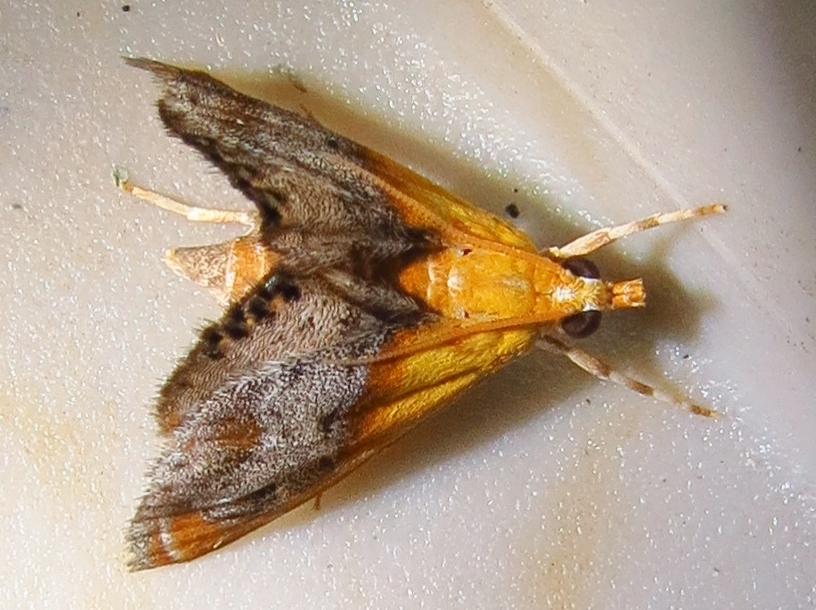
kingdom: Animalia
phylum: Arthropoda
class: Insecta
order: Lepidoptera
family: Crambidae
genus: Chalcoela
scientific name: Chalcoela iphitalis
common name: Sooty-winged chalcoela moth
